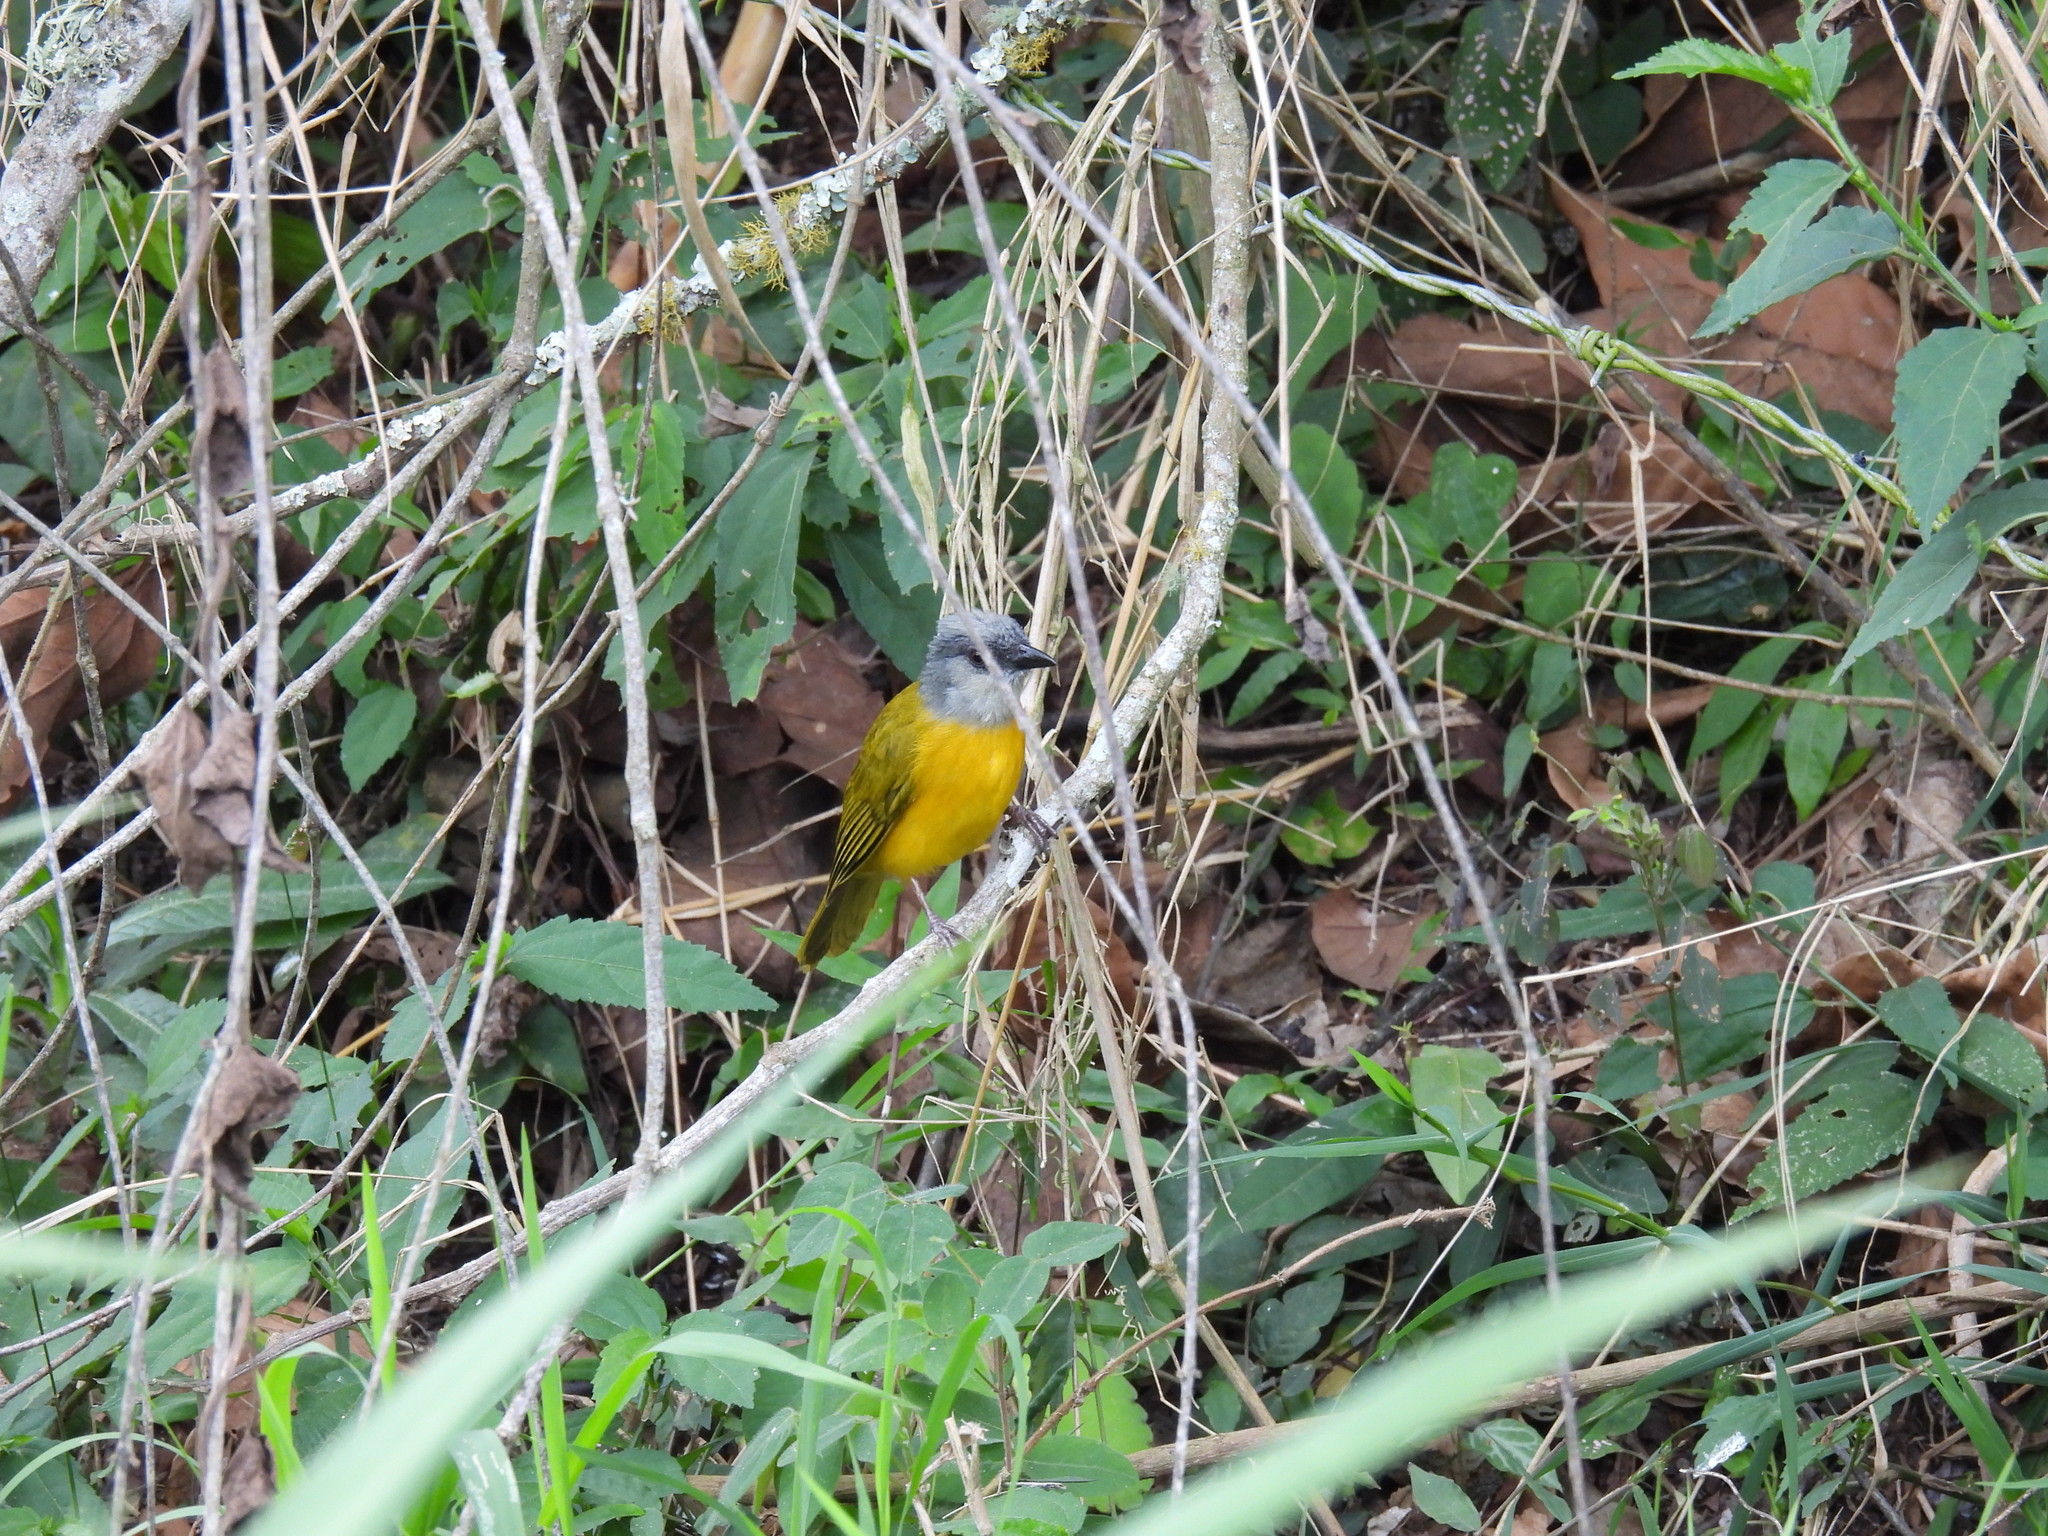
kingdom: Animalia
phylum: Chordata
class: Aves
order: Passeriformes
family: Thraupidae
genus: Eucometis
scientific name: Eucometis penicillata
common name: Grey-headed tanager
